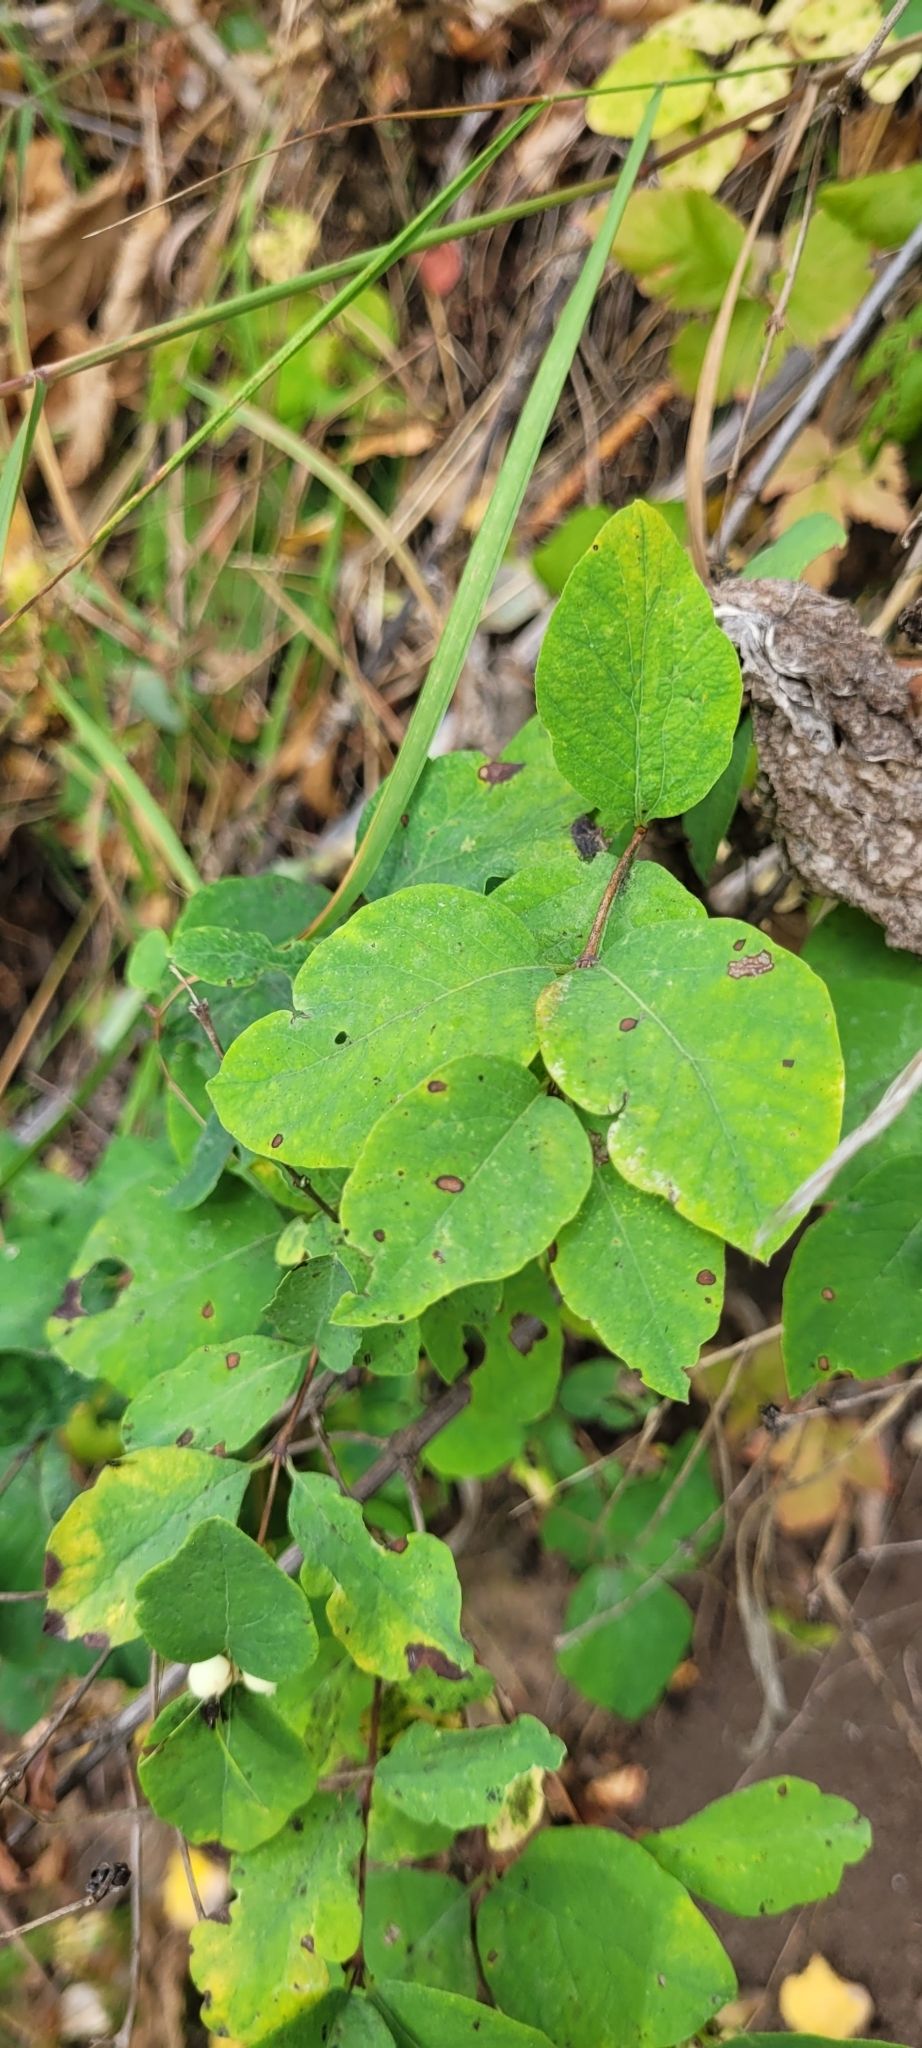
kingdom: Plantae
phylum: Tracheophyta
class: Magnoliopsida
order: Dipsacales
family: Caprifoliaceae
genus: Symphoricarpos
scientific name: Symphoricarpos albus
